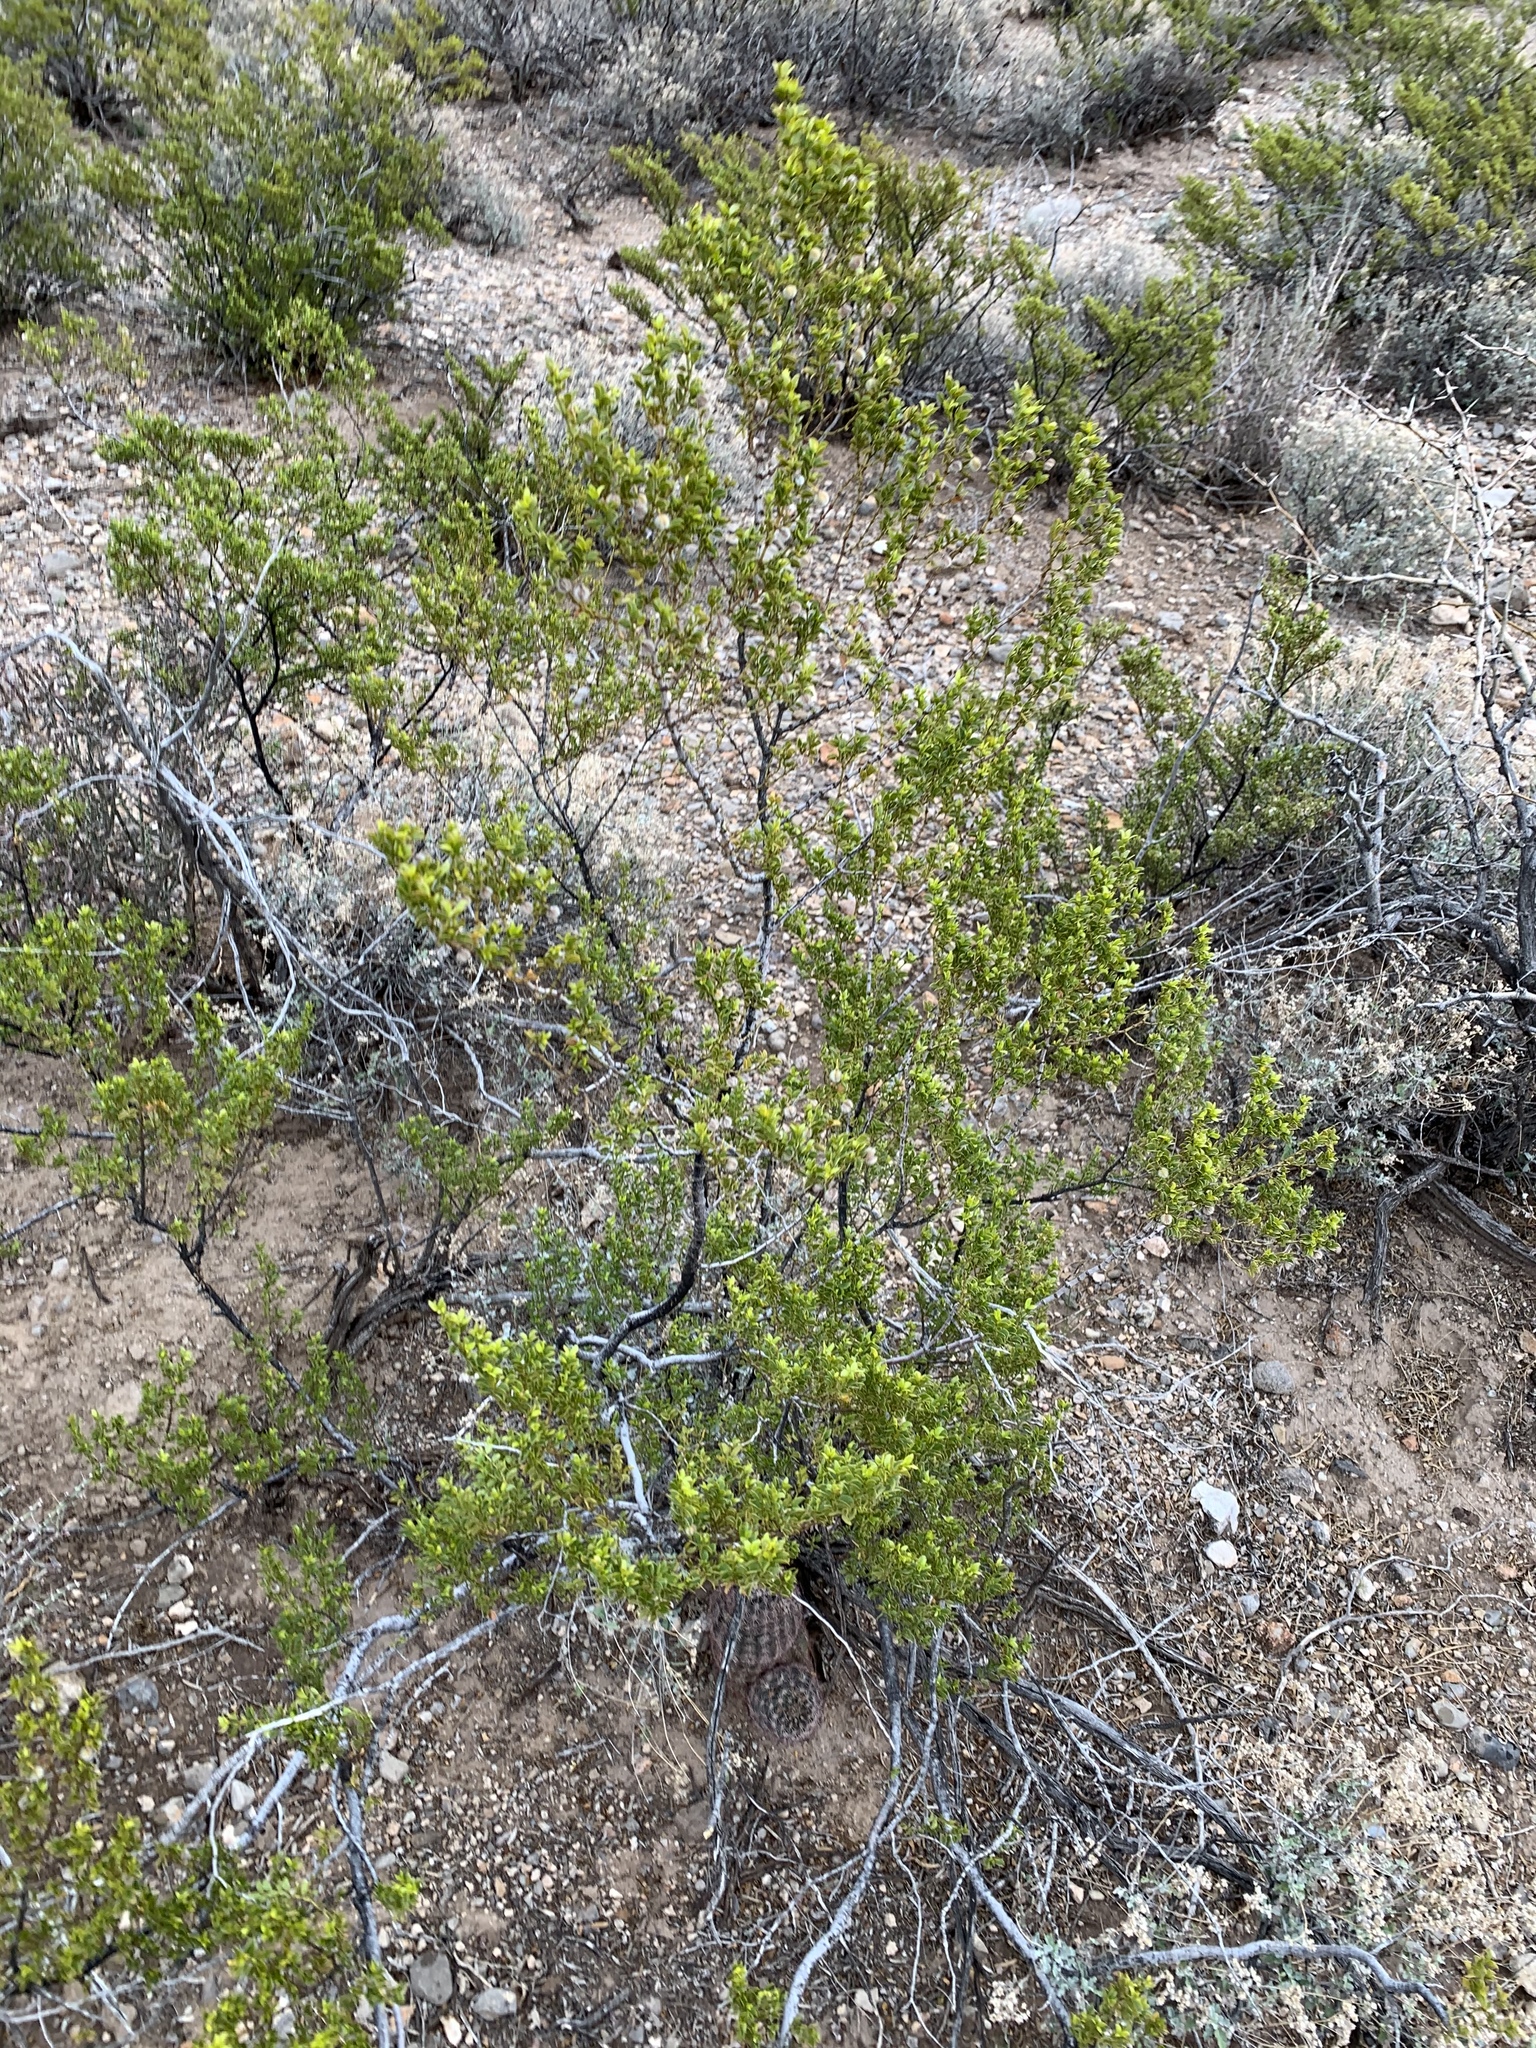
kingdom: Plantae
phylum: Tracheophyta
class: Magnoliopsida
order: Zygophyllales
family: Zygophyllaceae
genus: Larrea
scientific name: Larrea tridentata
